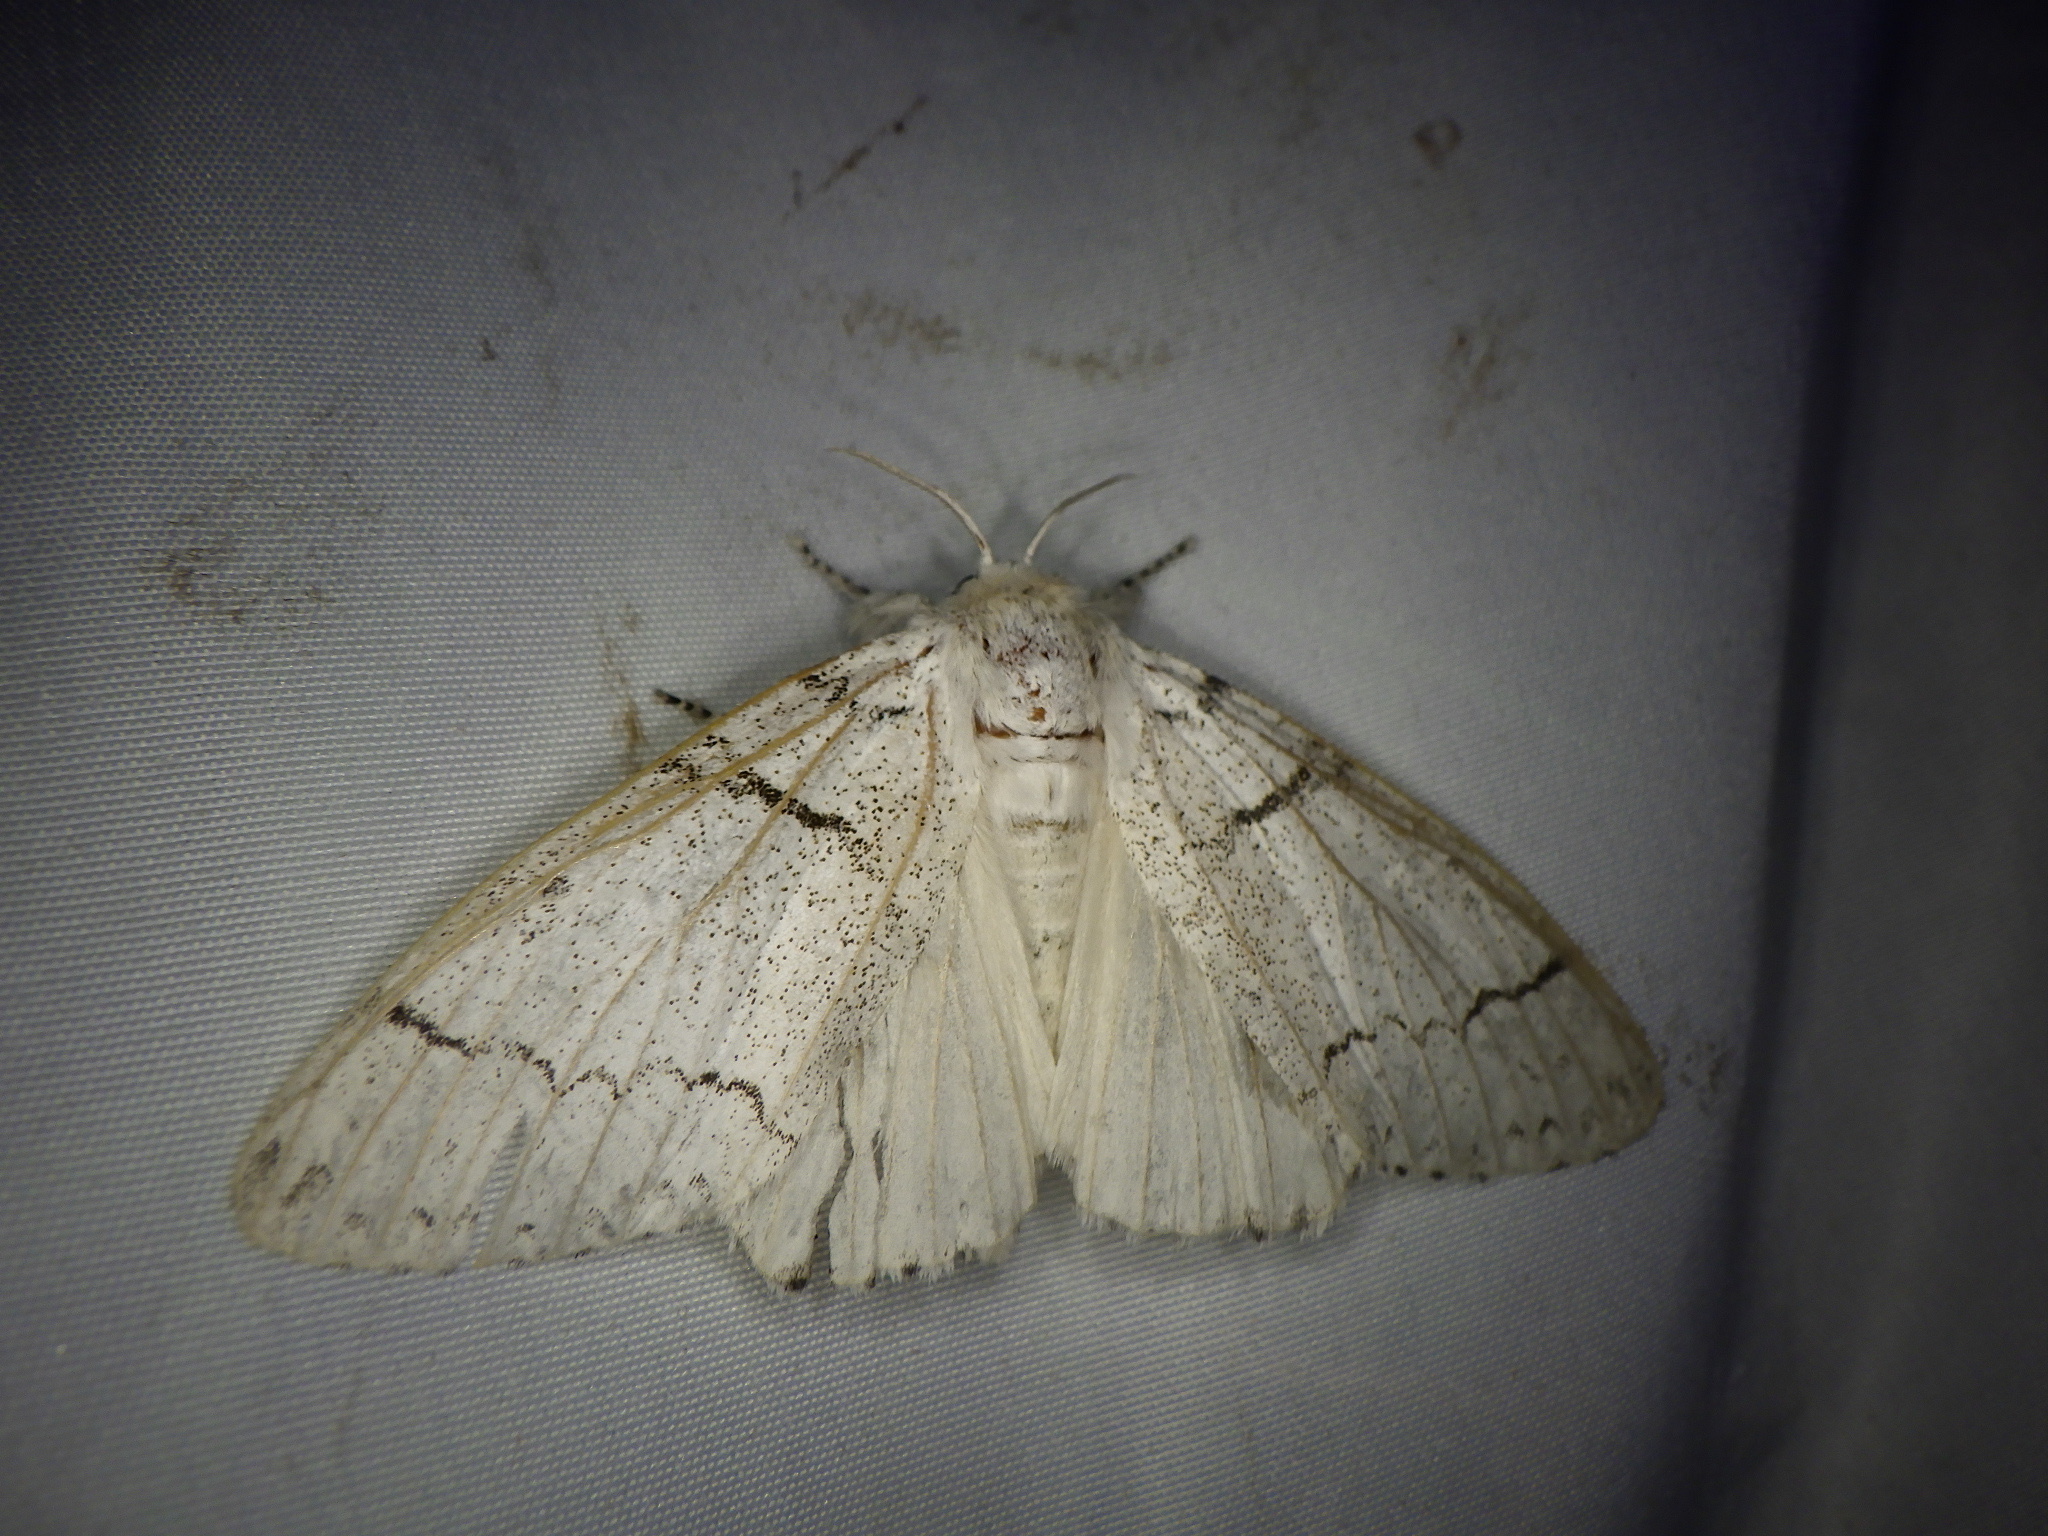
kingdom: Animalia
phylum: Arthropoda
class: Insecta
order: Lepidoptera
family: Erebidae
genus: Calliteara
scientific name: Calliteara
